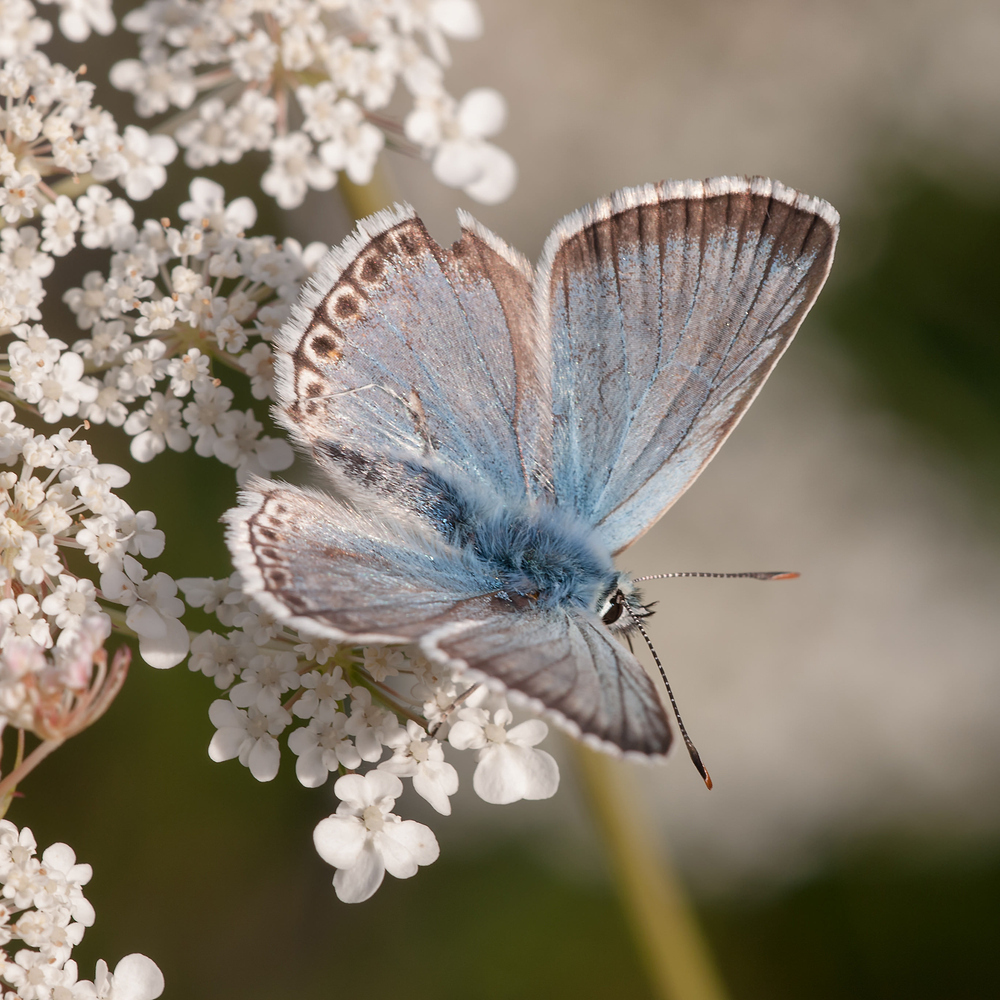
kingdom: Animalia
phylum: Arthropoda
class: Insecta
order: Lepidoptera
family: Lycaenidae
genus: Lysandra
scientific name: Lysandra coridon
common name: Chalkhill blue
